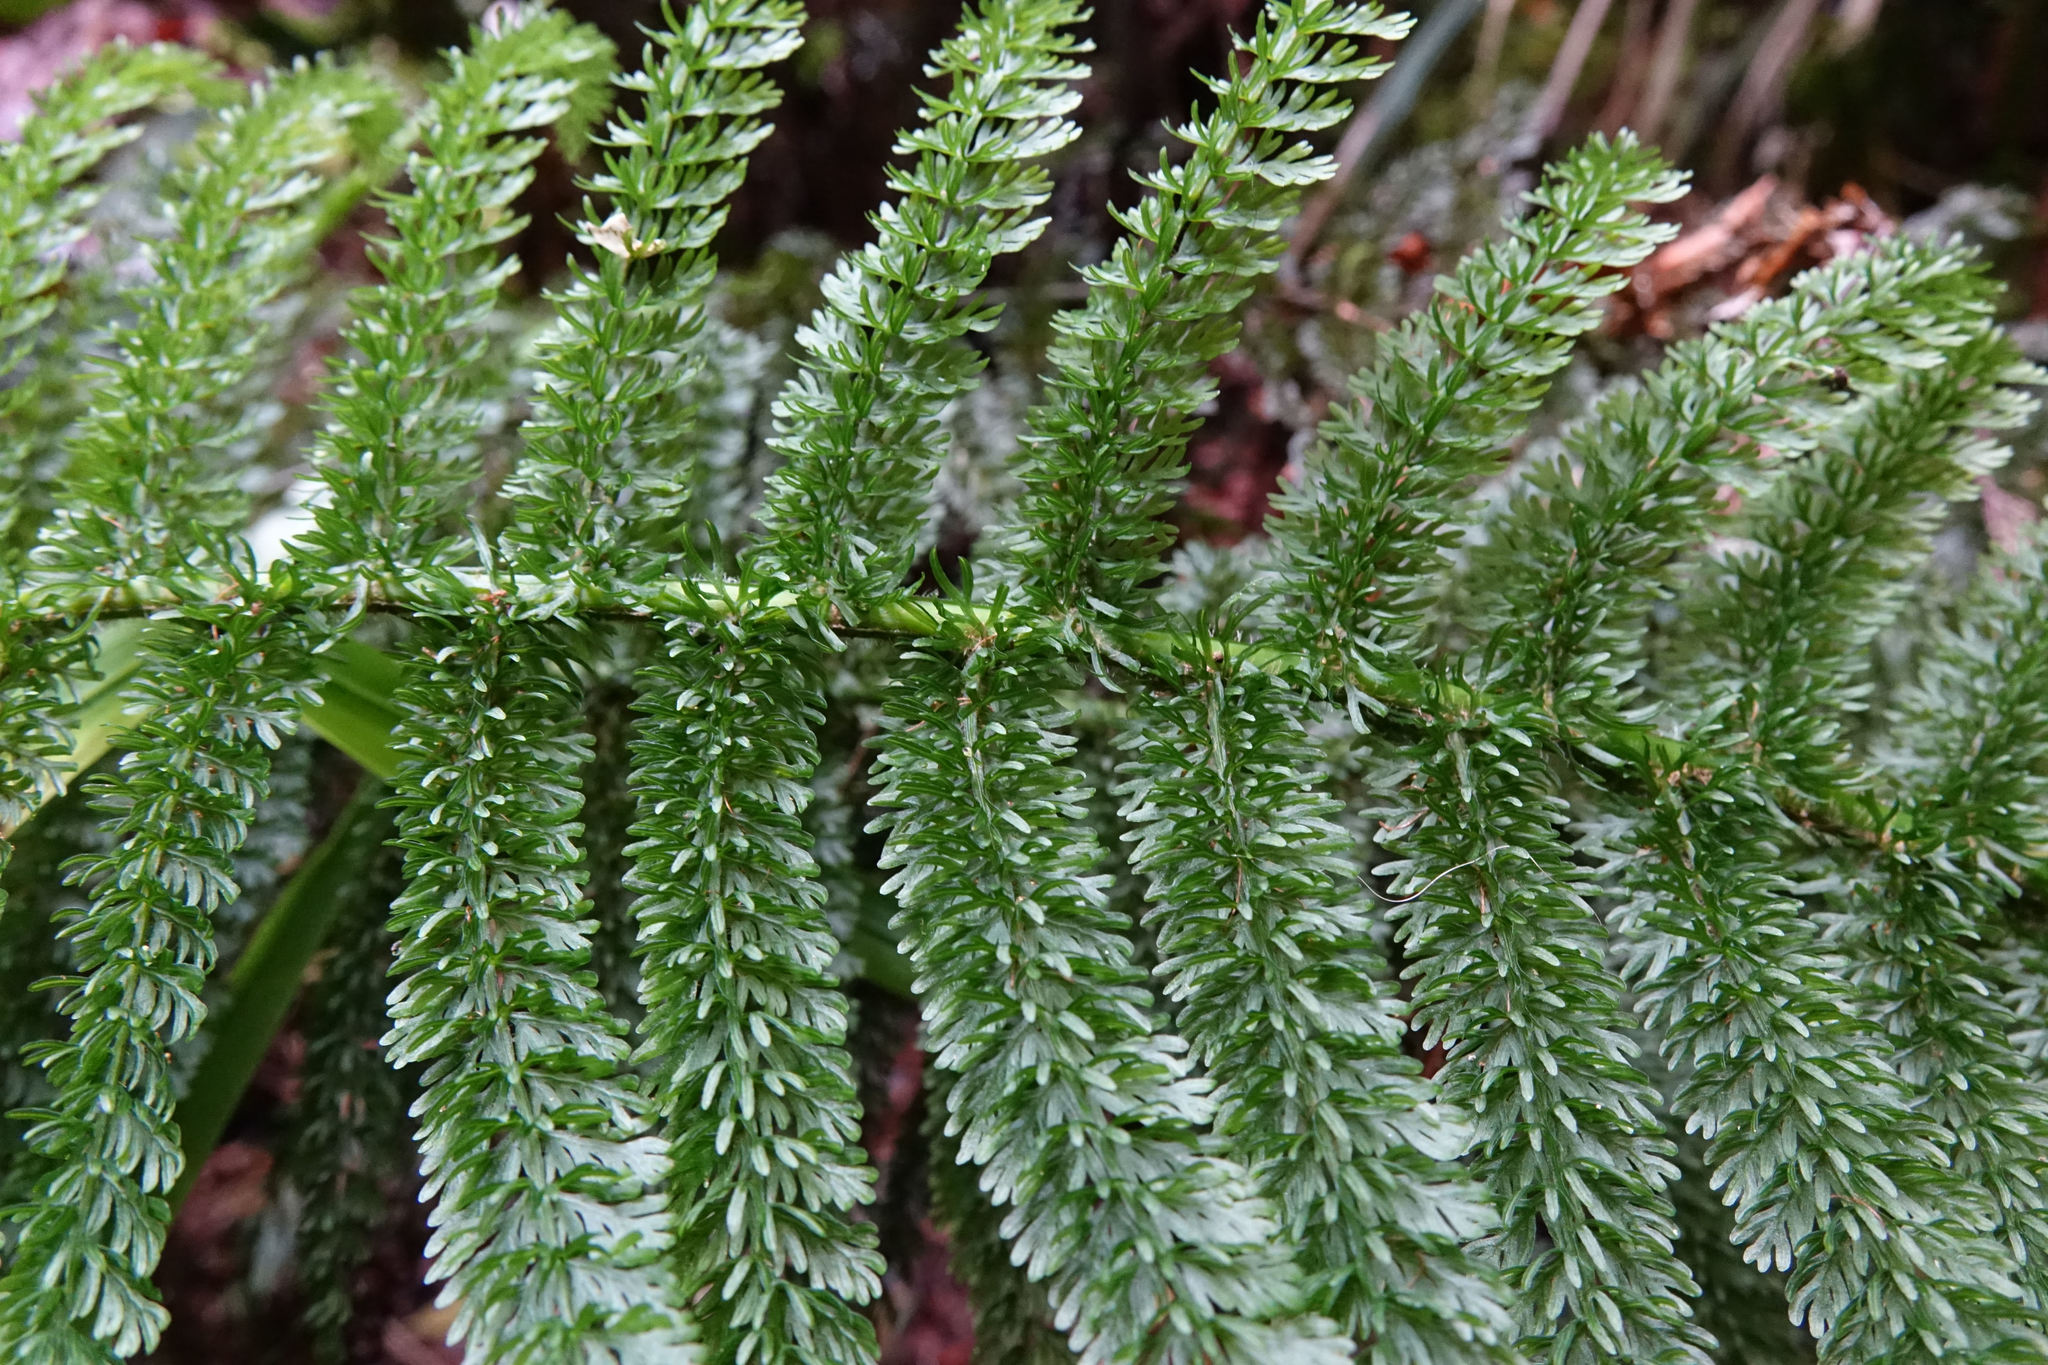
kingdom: Plantae
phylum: Tracheophyta
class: Polypodiopsida
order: Osmundales
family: Osmundaceae
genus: Leptopteris
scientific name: Leptopteris superba
